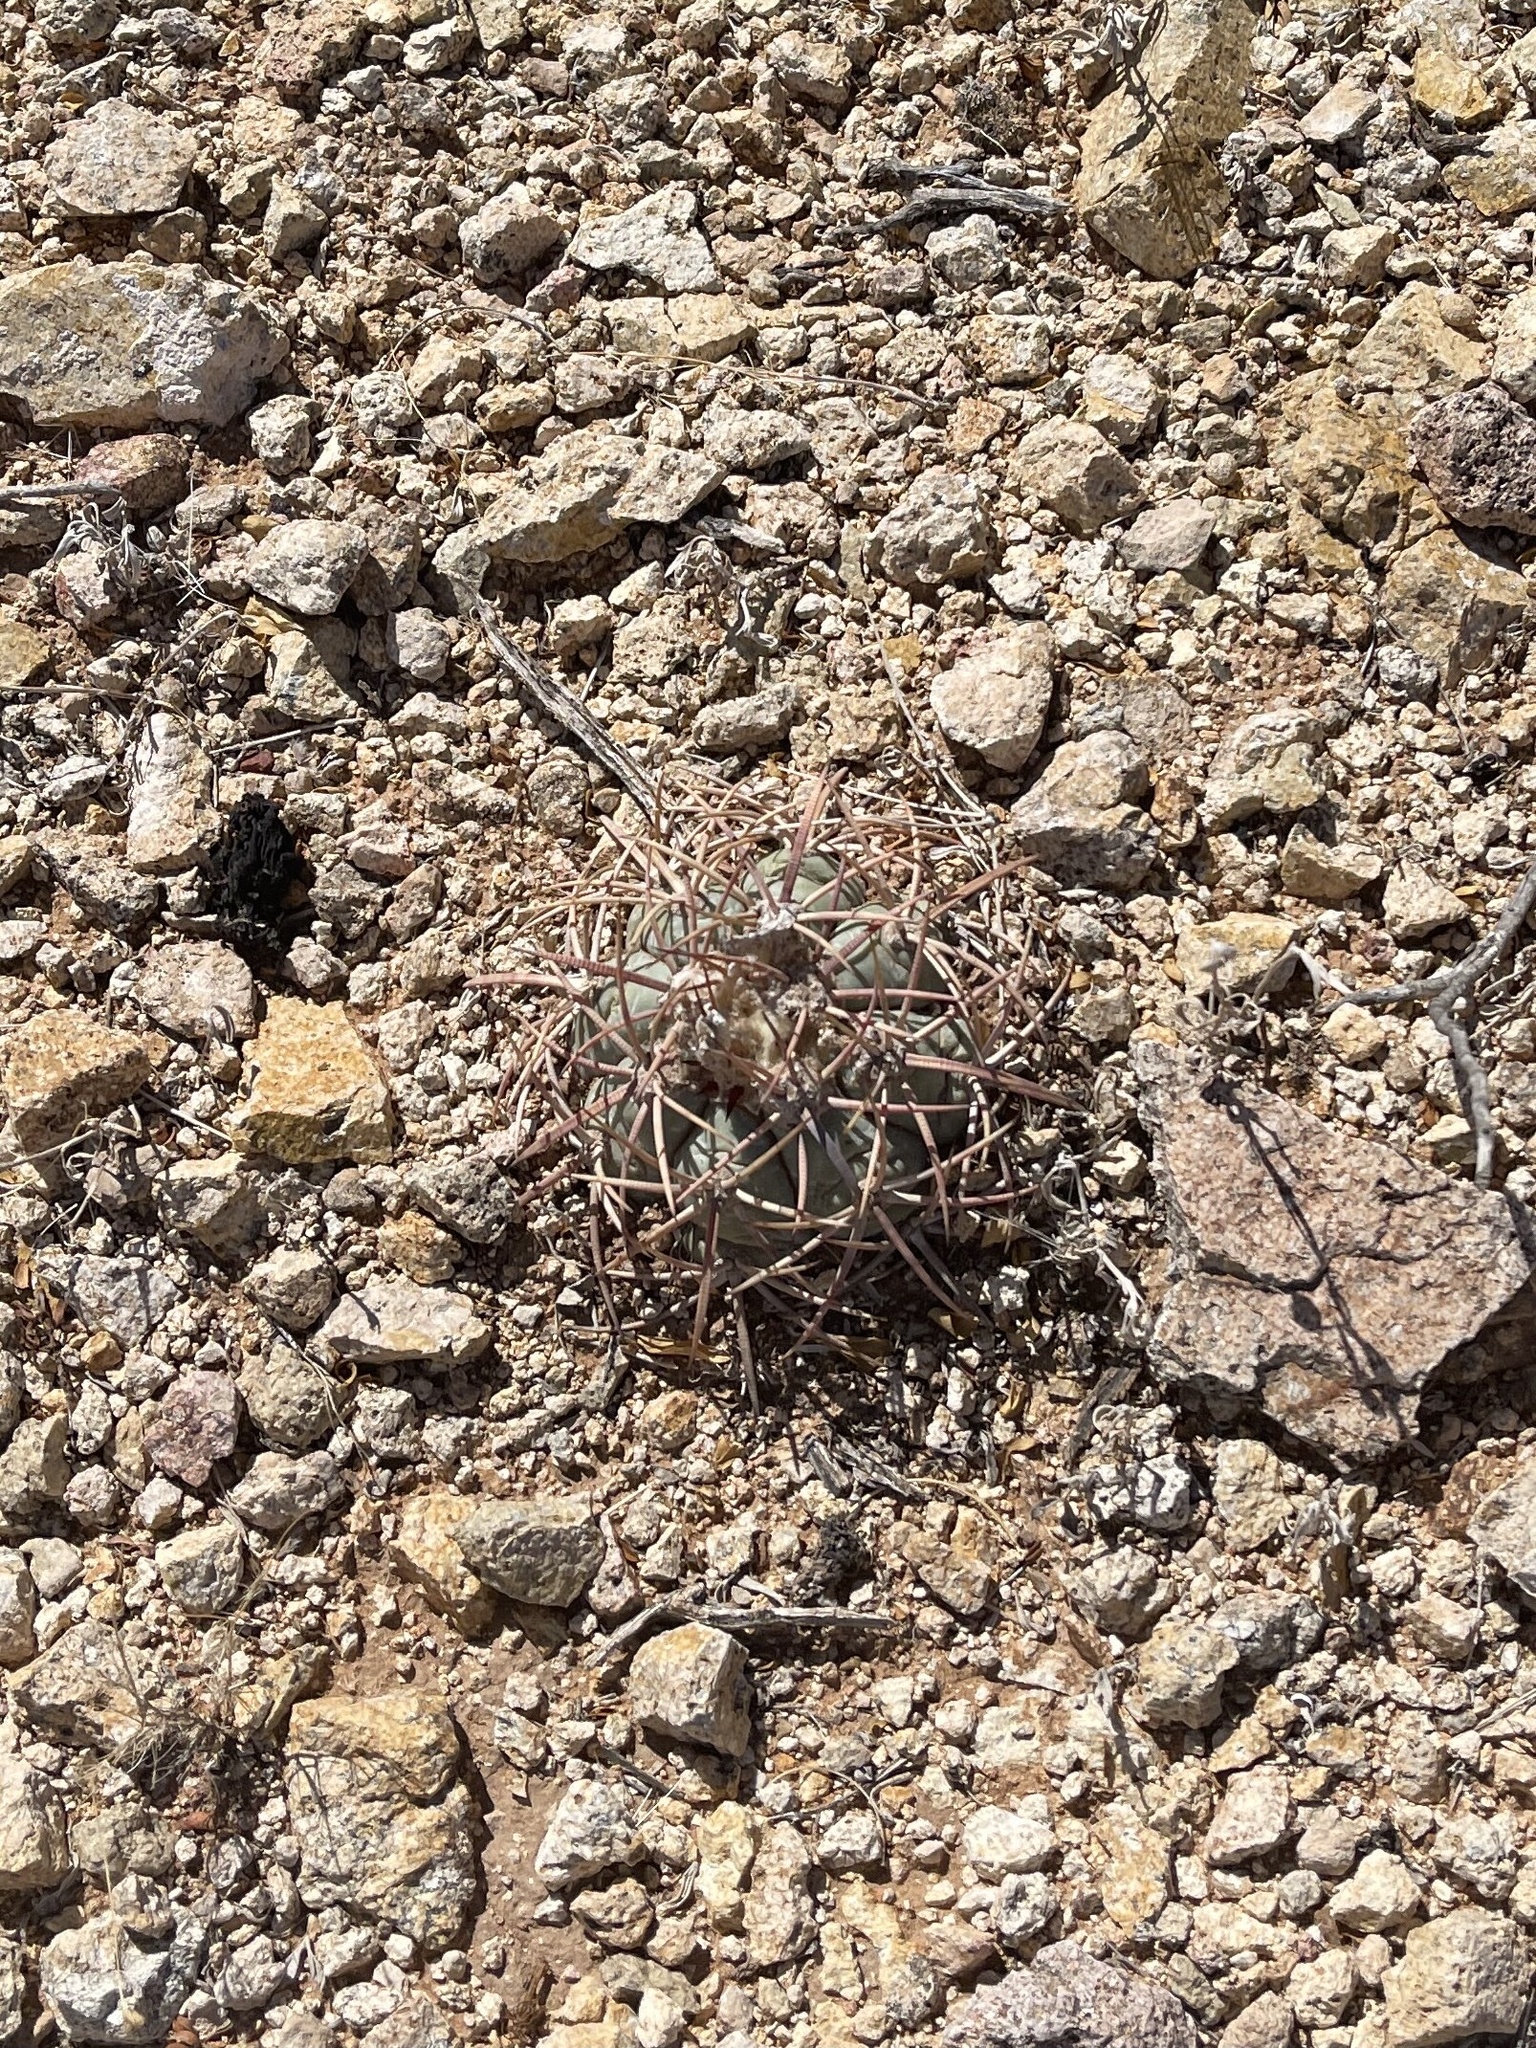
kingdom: Plantae
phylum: Tracheophyta
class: Magnoliopsida
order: Caryophyllales
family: Cactaceae
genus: Echinocactus
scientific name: Echinocactus horizonthalonius
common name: Devilshead
